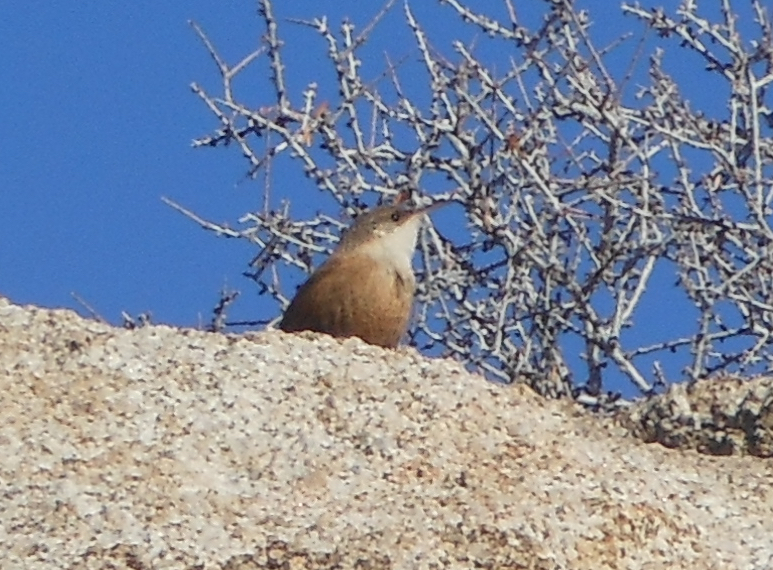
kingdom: Animalia
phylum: Chordata
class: Aves
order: Passeriformes
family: Troglodytidae
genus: Catherpes
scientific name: Catherpes mexicanus
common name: Canyon wren
